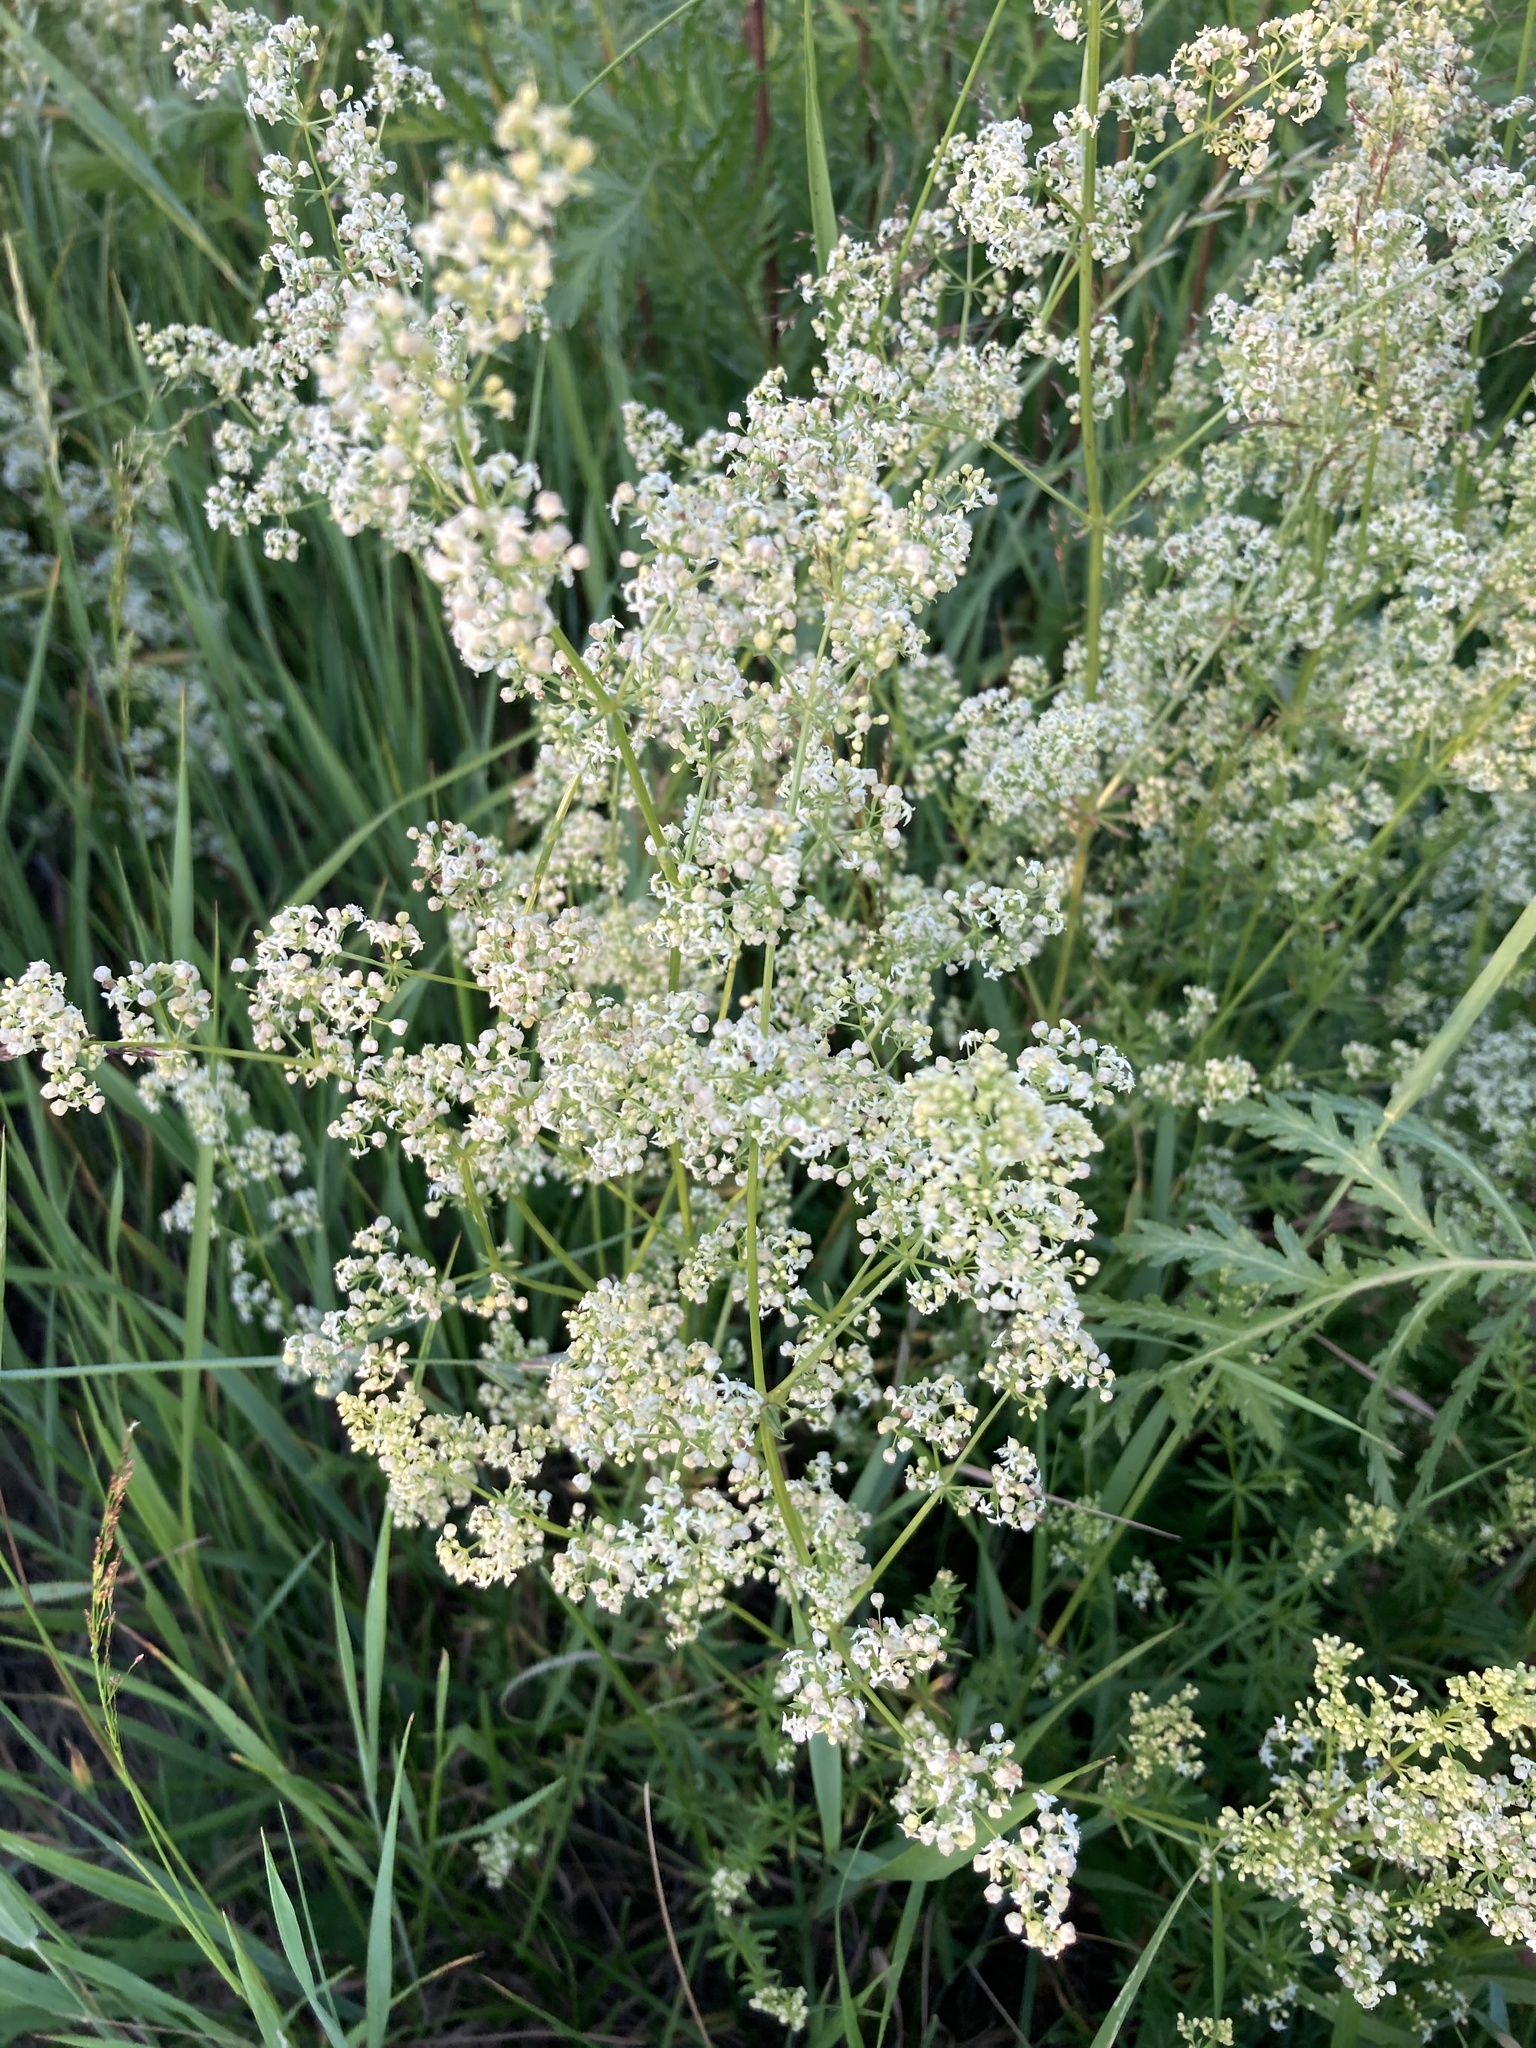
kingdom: Plantae
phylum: Tracheophyta
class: Magnoliopsida
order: Gentianales
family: Rubiaceae
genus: Galium
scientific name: Galium mollugo
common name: Hedge bedstraw
